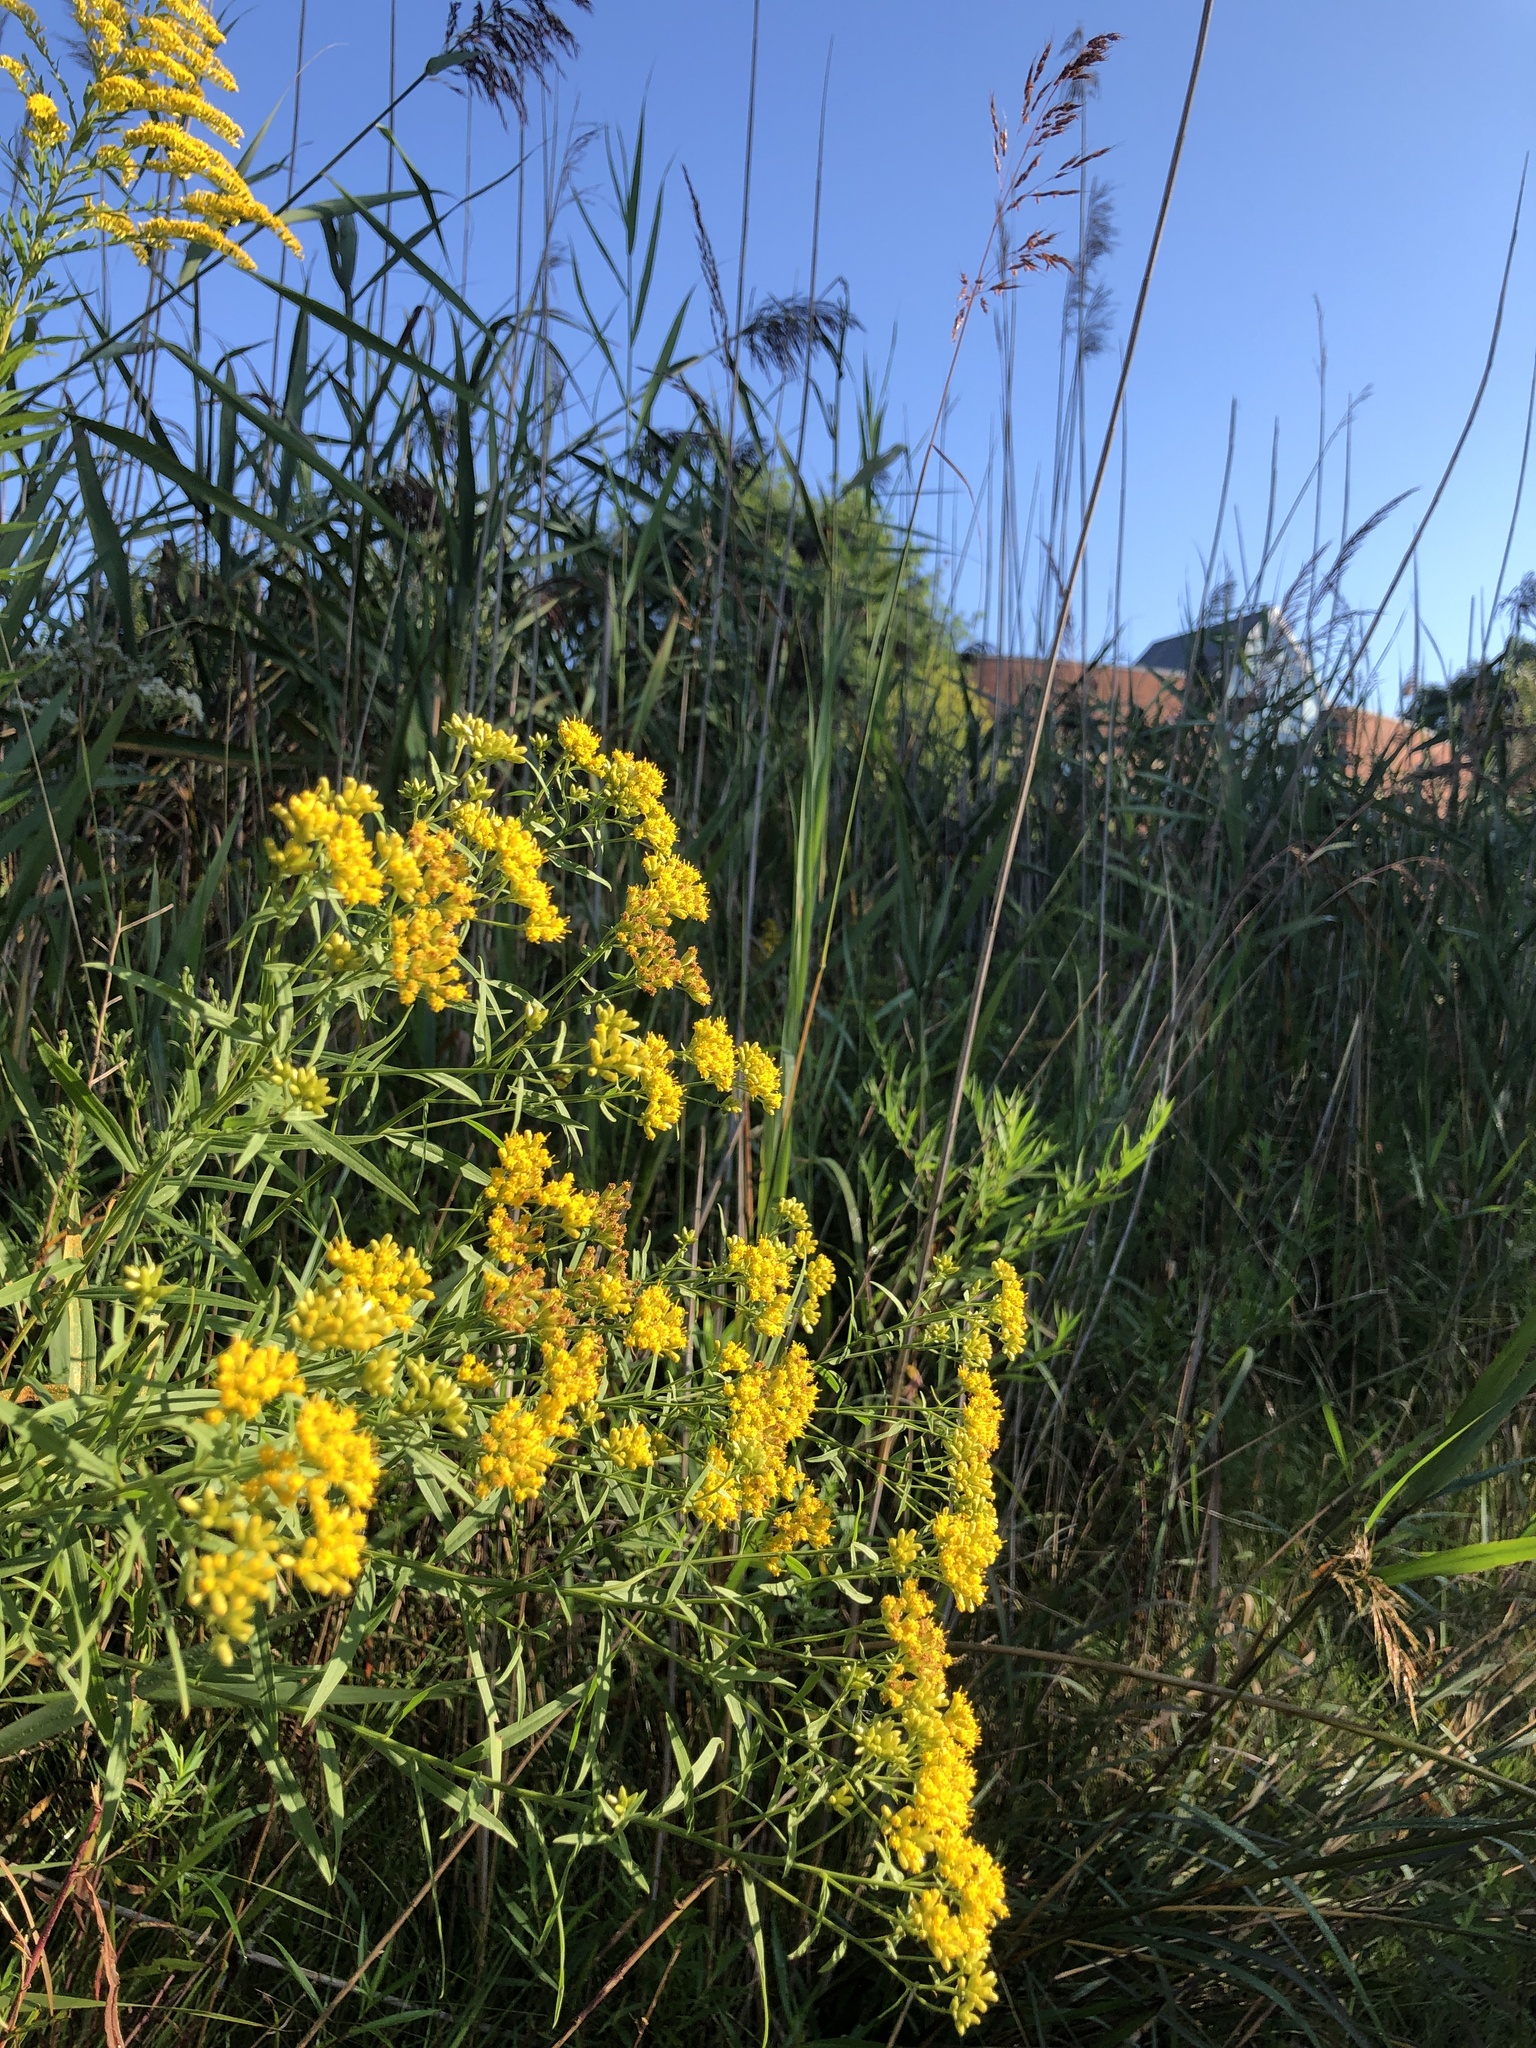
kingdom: Plantae
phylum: Tracheophyta
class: Magnoliopsida
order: Asterales
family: Asteraceae
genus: Euthamia
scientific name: Euthamia graminifolia
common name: Common goldentop
